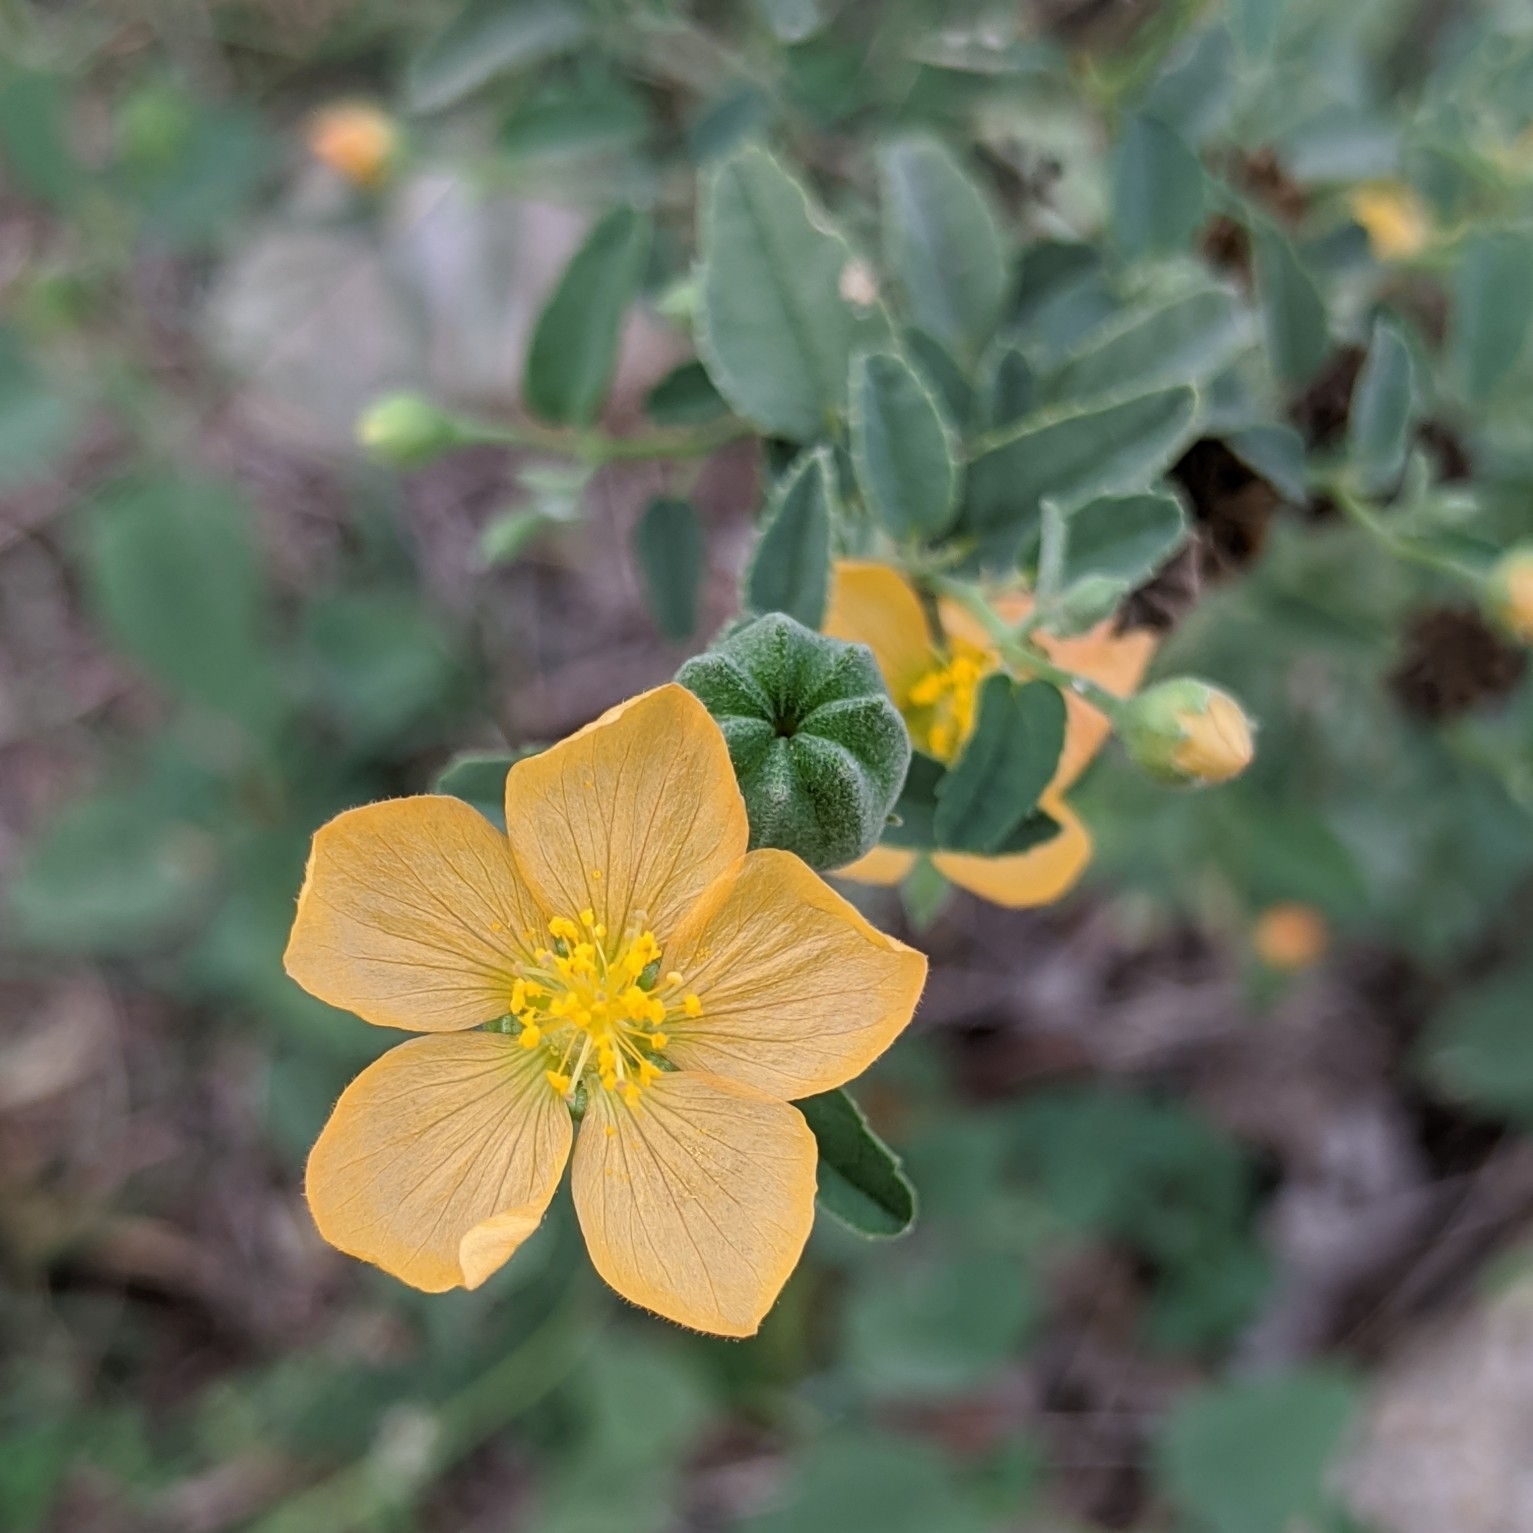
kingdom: Plantae
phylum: Tracheophyta
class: Magnoliopsida
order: Malvales
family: Malvaceae
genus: Abutilon
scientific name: Abutilon fruticosum
